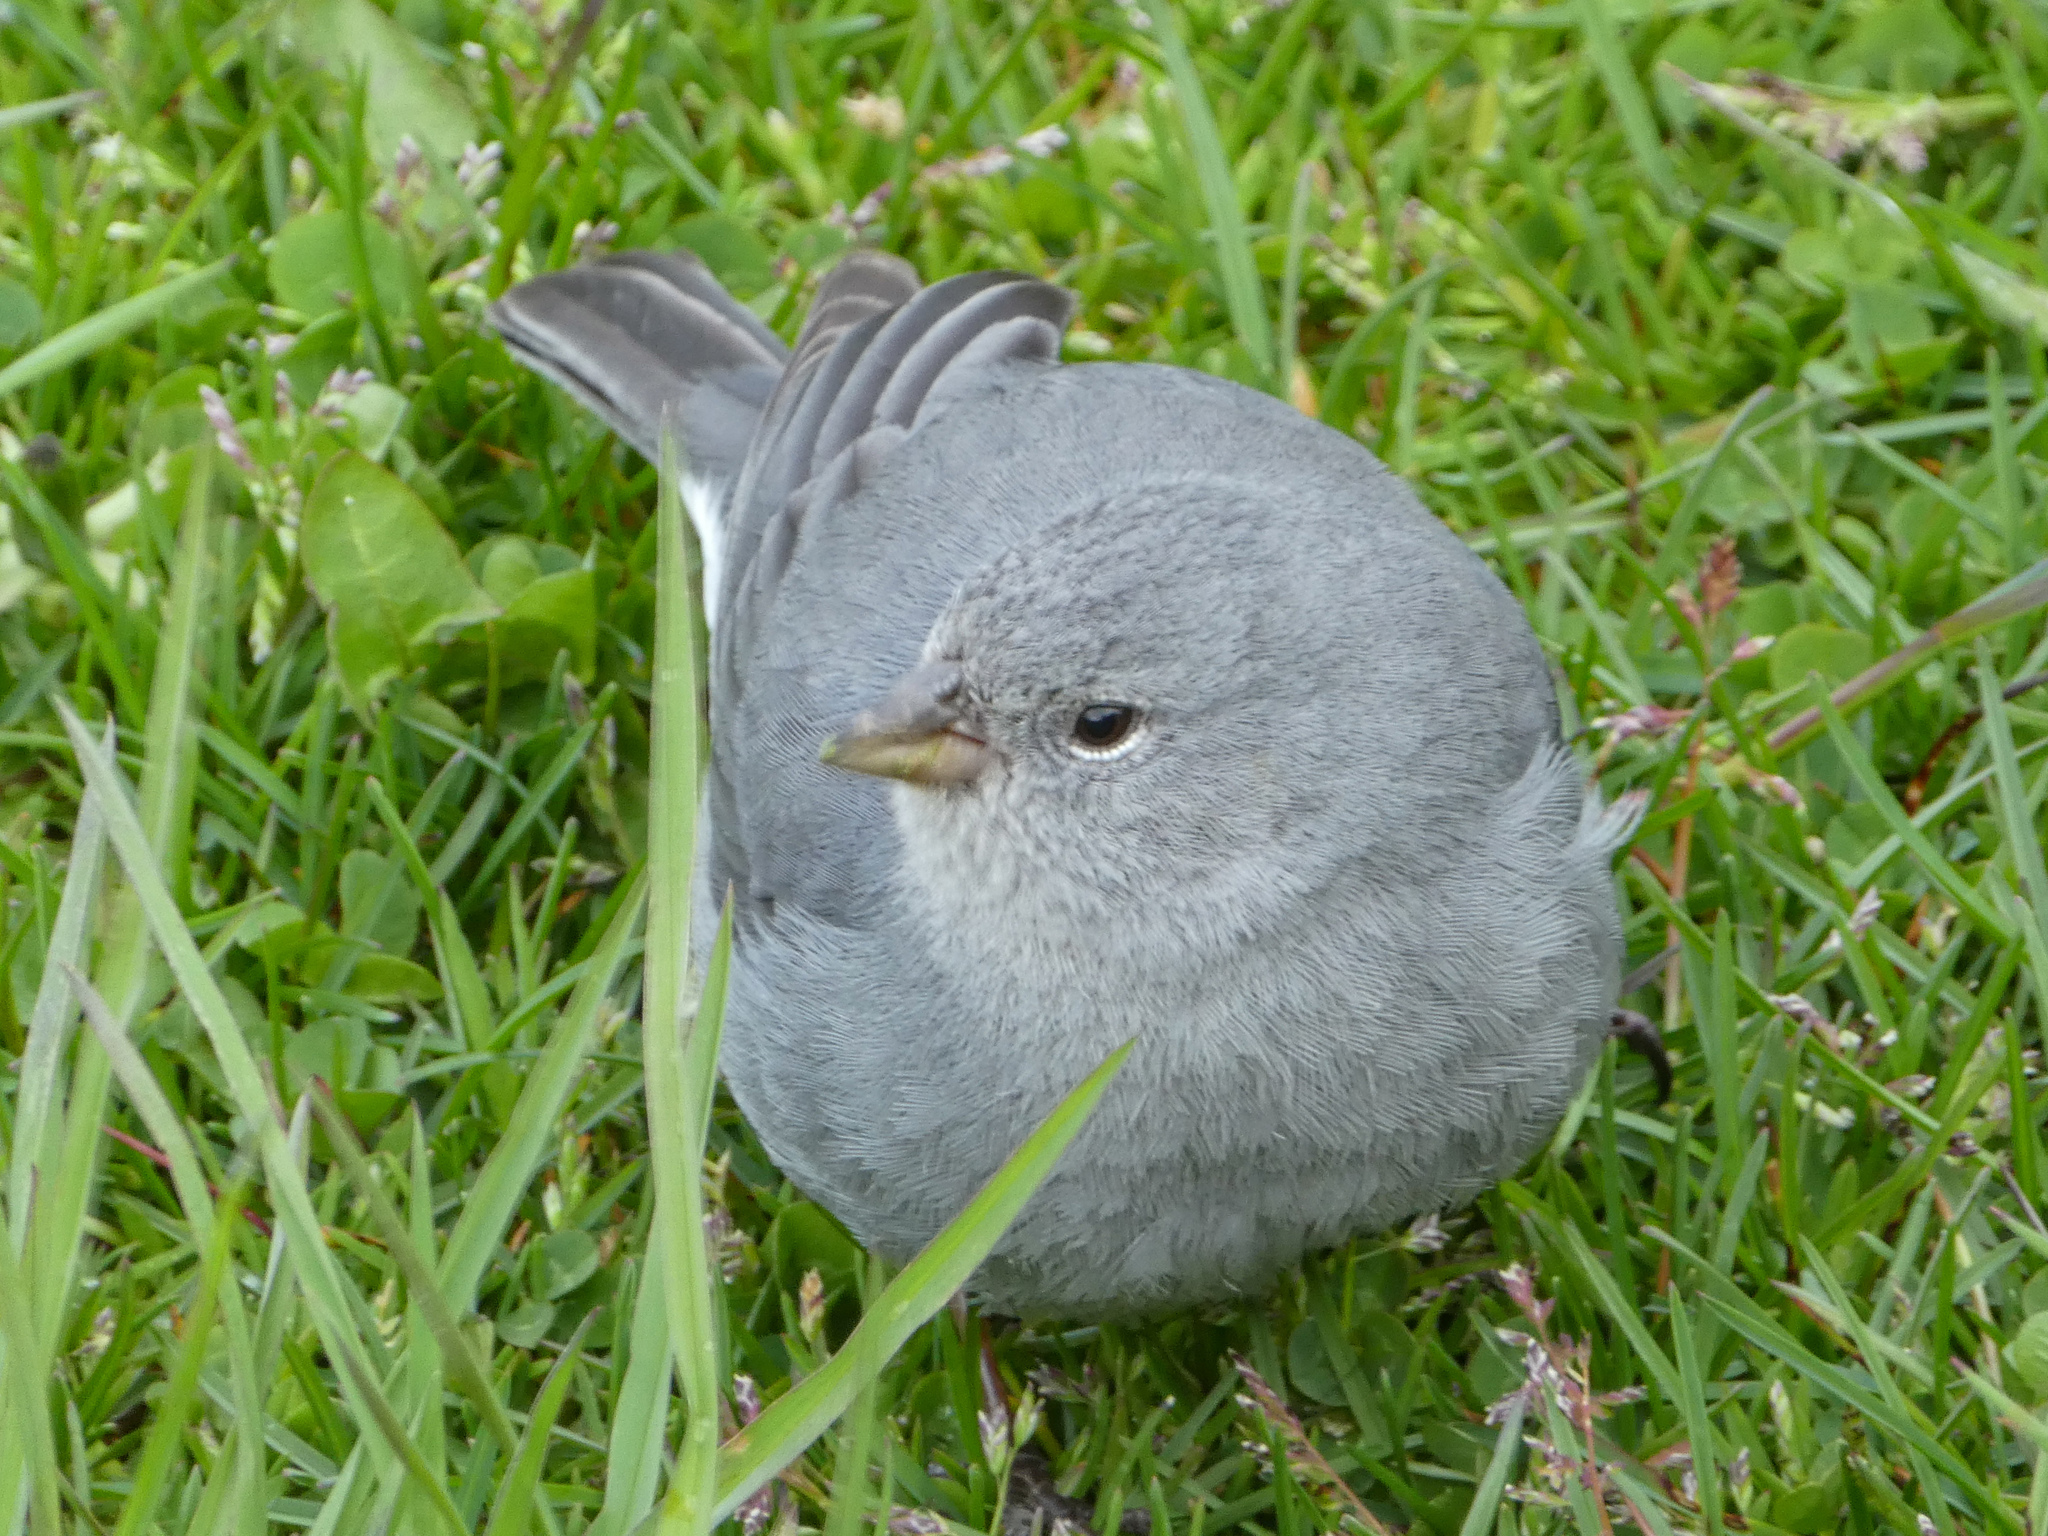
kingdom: Animalia
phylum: Chordata
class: Aves
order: Passeriformes
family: Thraupidae
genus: Geospizopsis
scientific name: Geospizopsis unicolor
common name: Plumbeous sierra-finch
